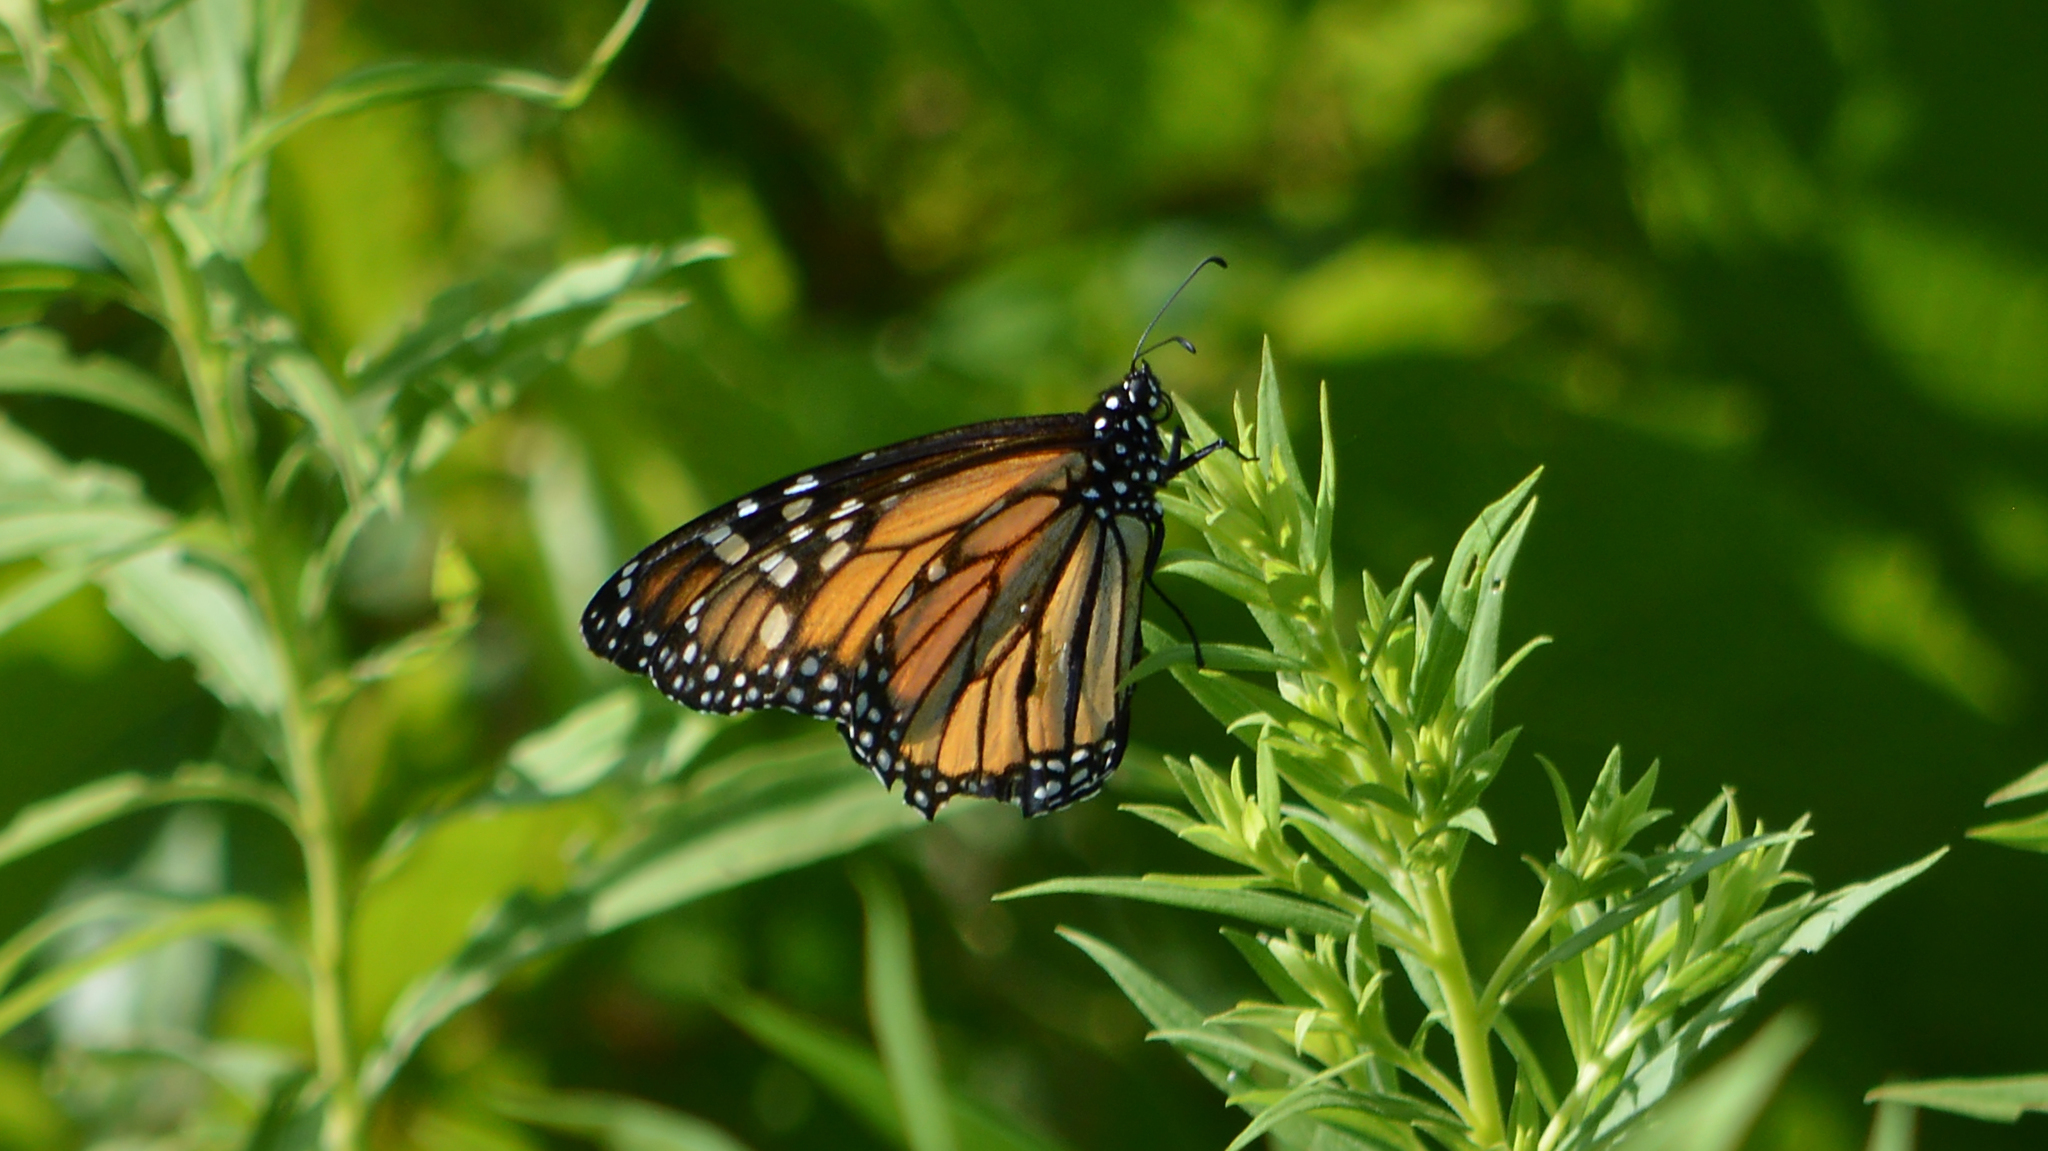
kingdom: Animalia
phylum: Arthropoda
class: Insecta
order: Lepidoptera
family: Nymphalidae
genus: Danaus
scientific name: Danaus plexippus
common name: Monarch
